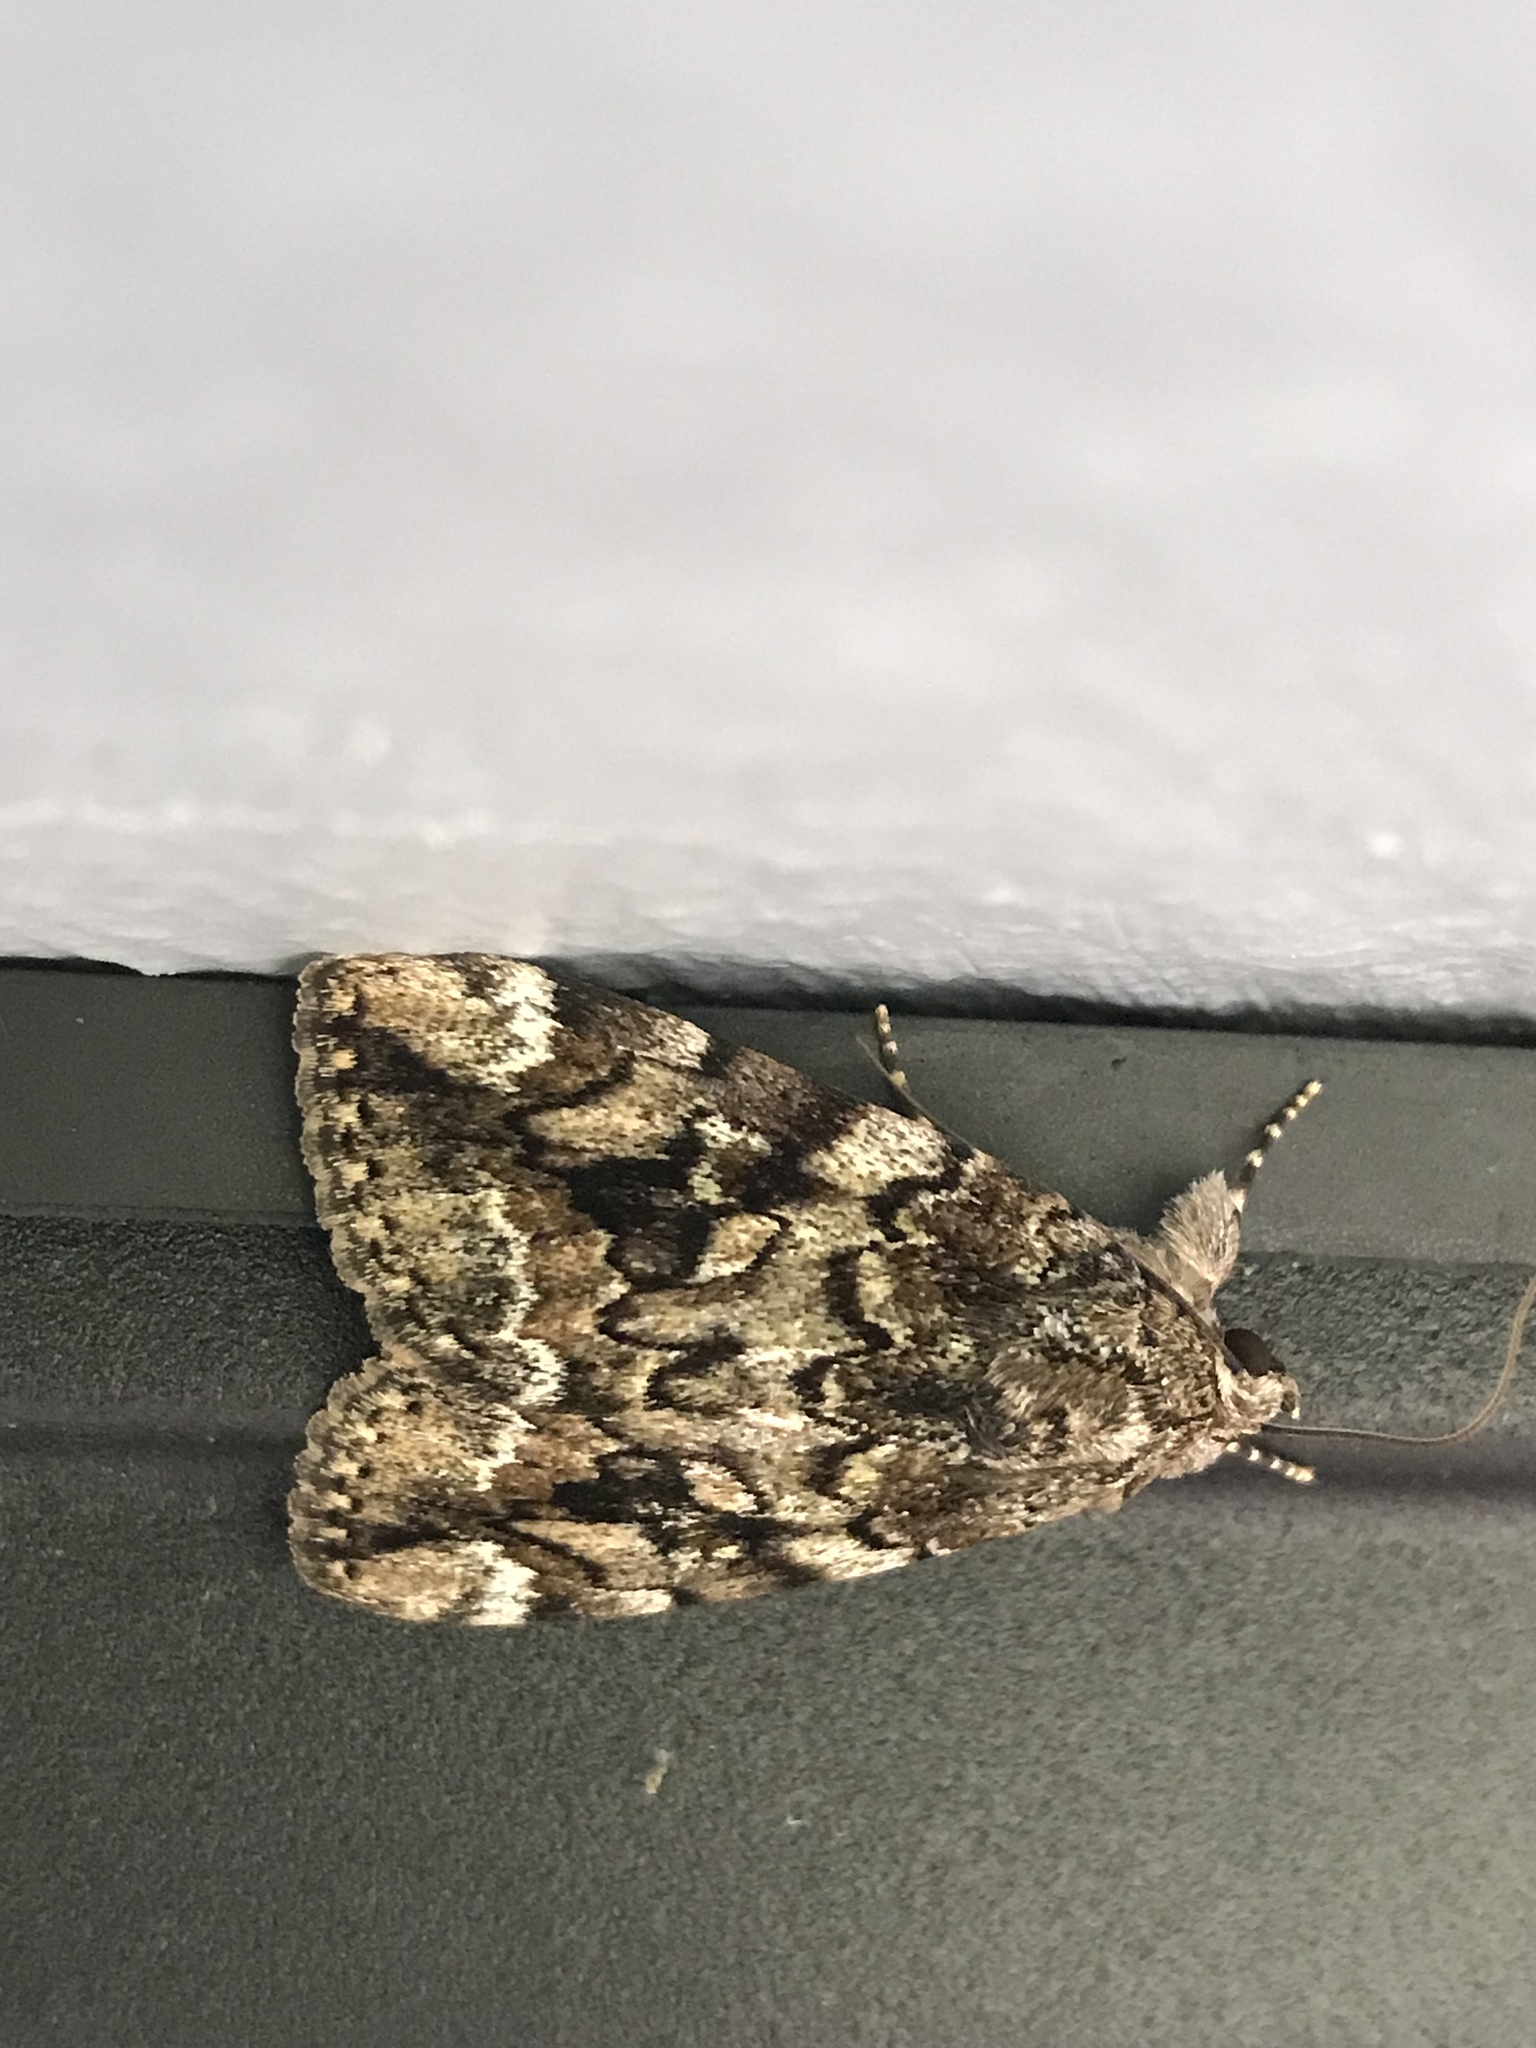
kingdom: Animalia
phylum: Arthropoda
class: Insecta
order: Lepidoptera
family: Erebidae
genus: Catocala
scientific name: Catocala micronympha
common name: Little nymph underwing
